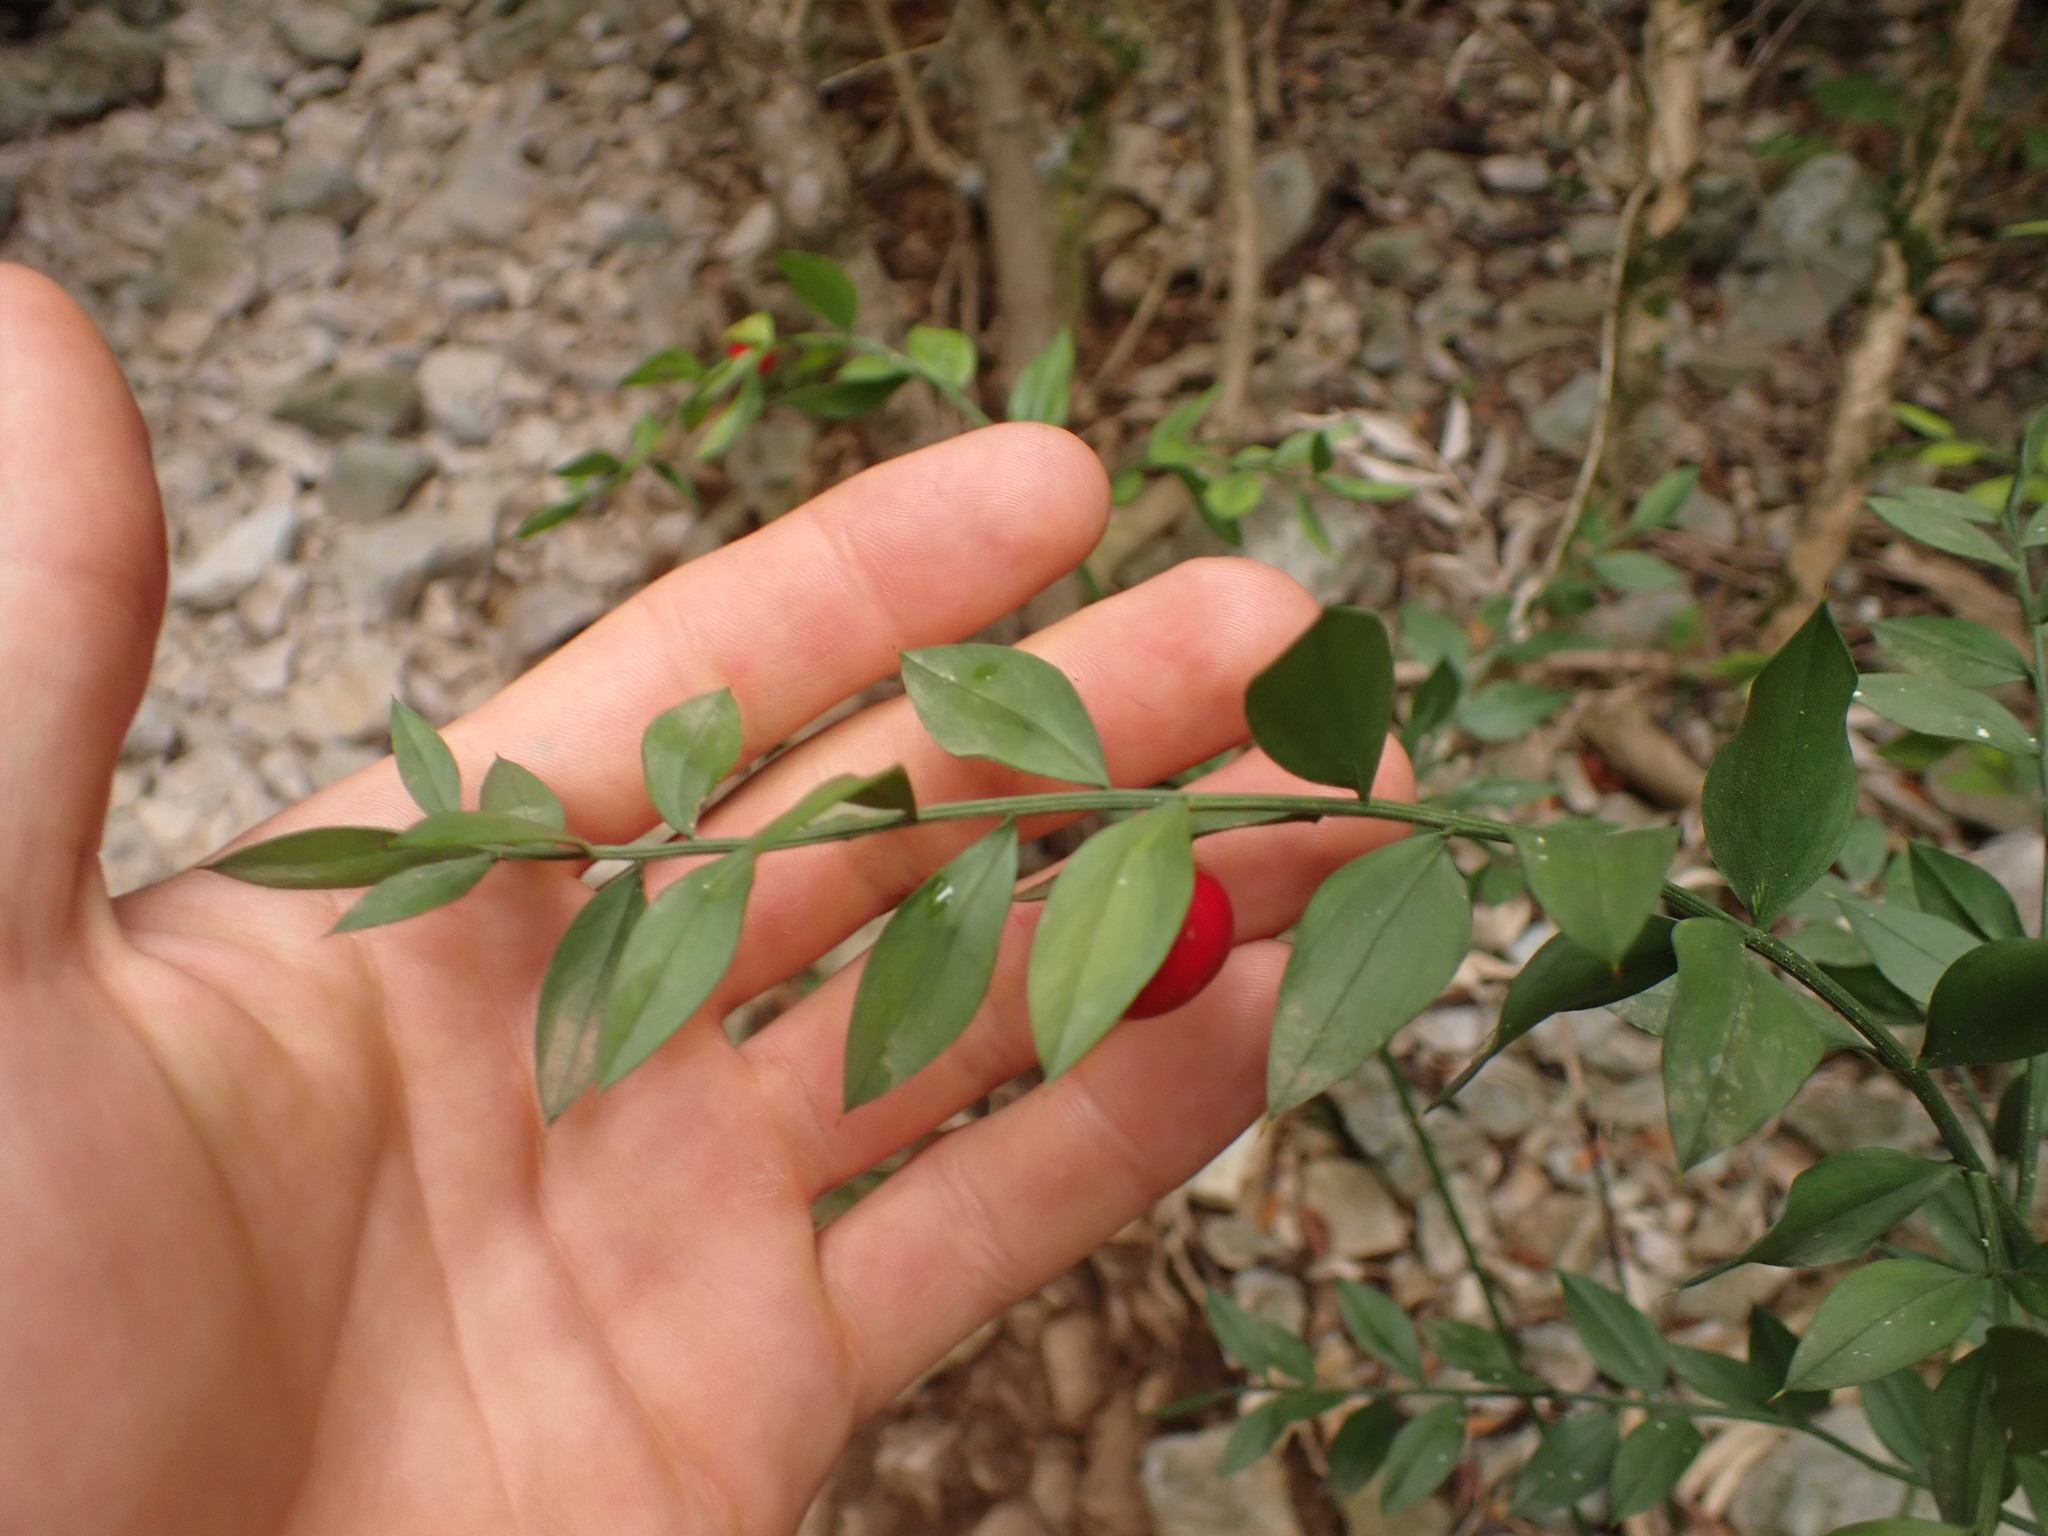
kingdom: Plantae
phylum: Tracheophyta
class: Liliopsida
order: Asparagales
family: Asparagaceae
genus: Ruscus
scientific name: Ruscus aculeatus
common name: Butcher's-broom
